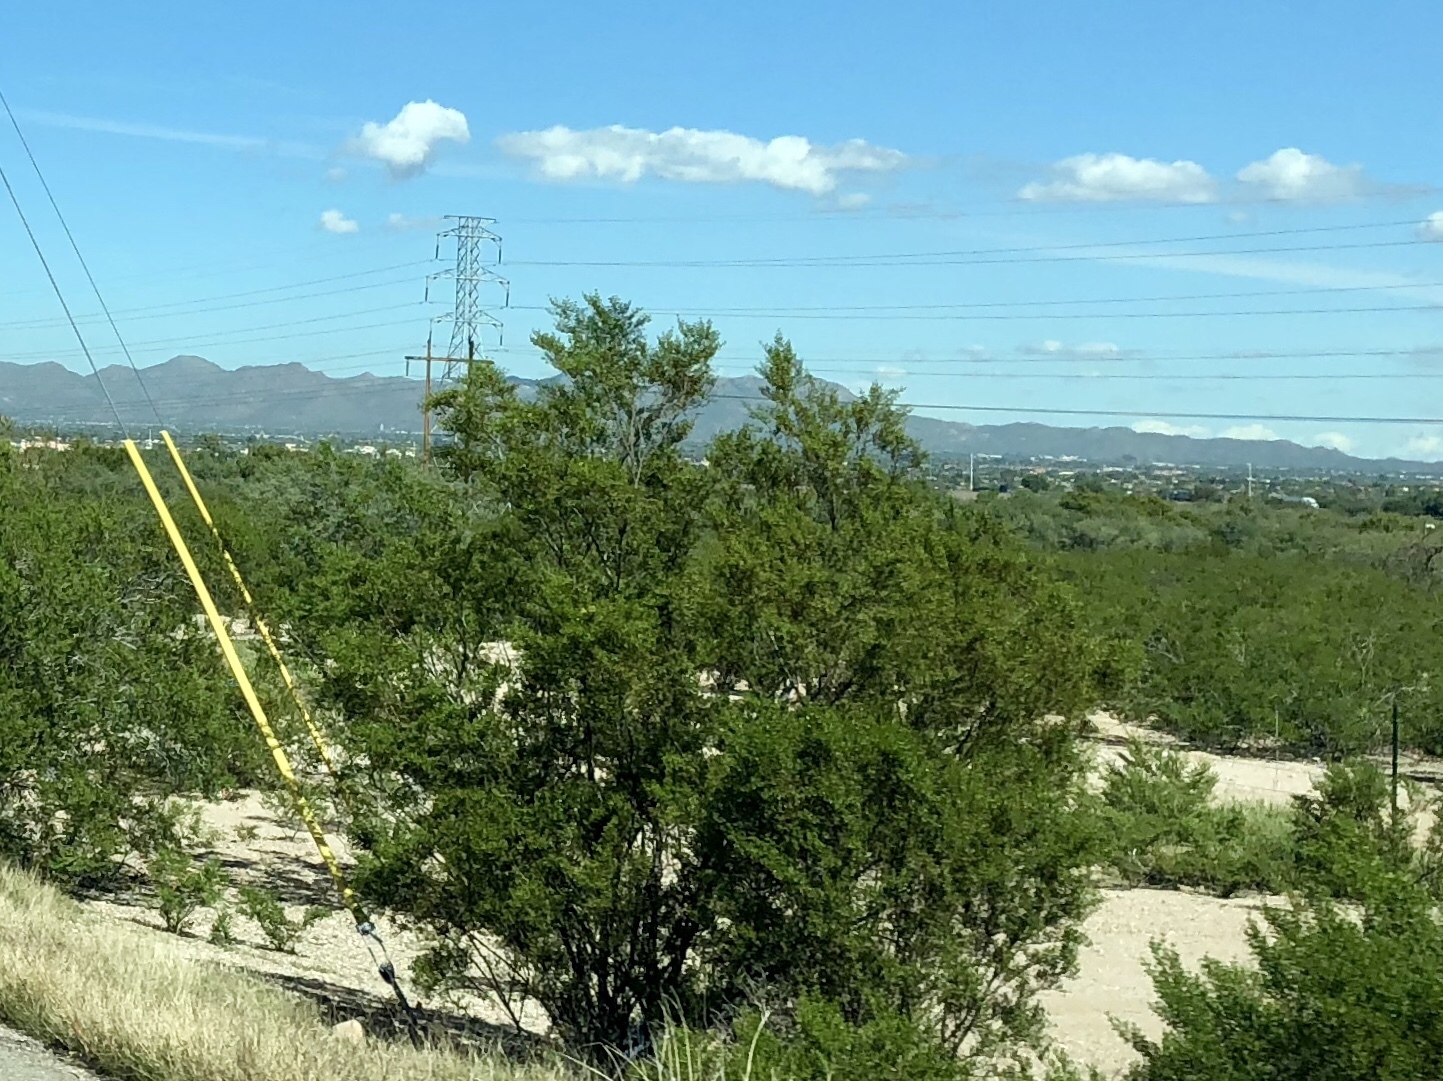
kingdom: Plantae
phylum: Tracheophyta
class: Magnoliopsida
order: Zygophyllales
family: Zygophyllaceae
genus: Larrea
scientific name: Larrea tridentata
